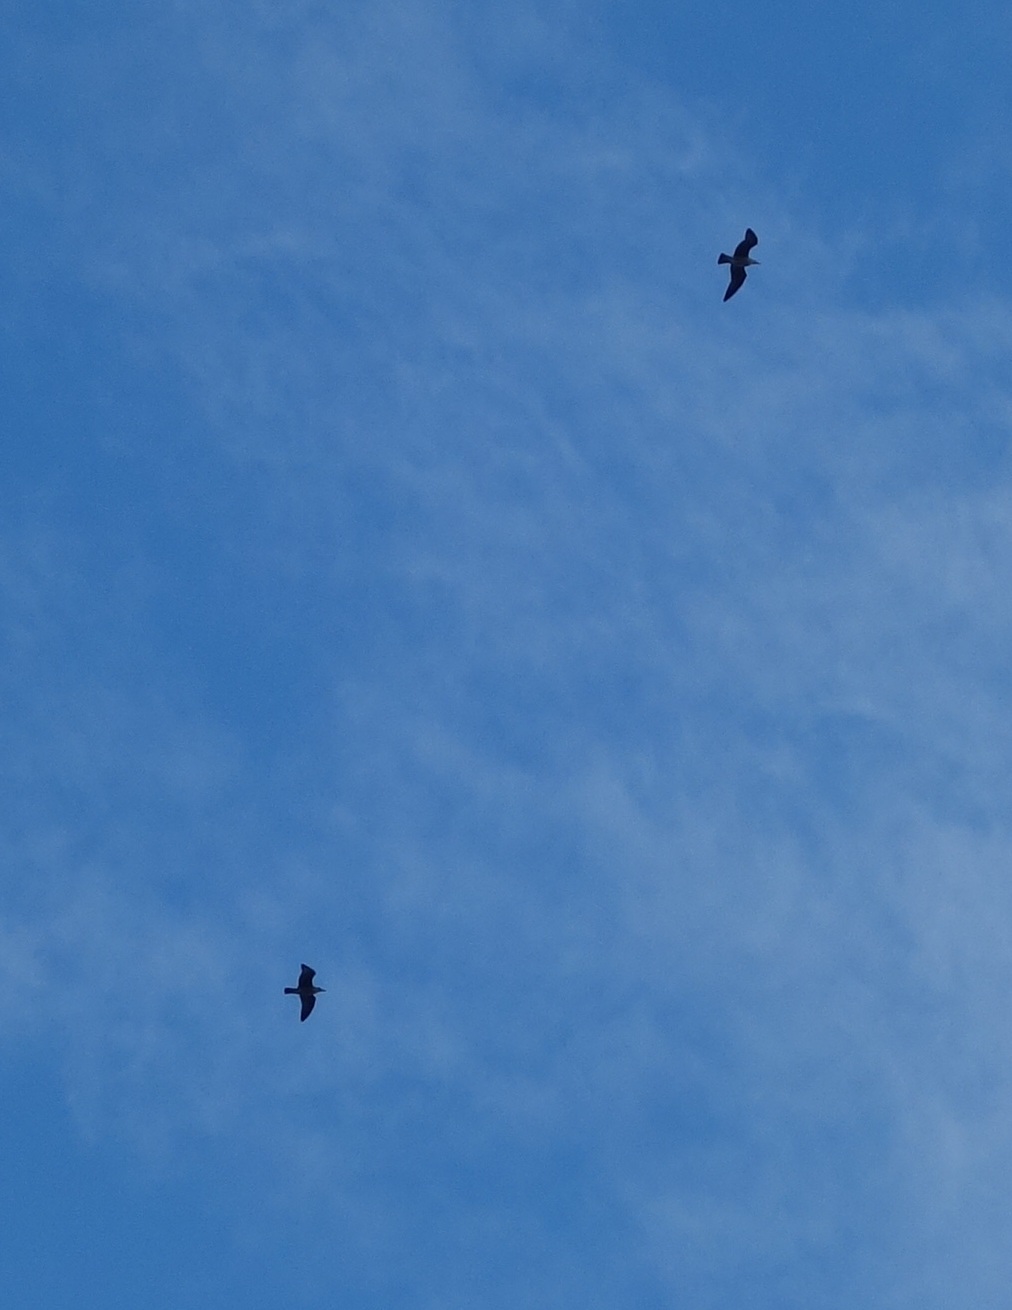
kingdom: Animalia
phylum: Chordata
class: Aves
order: Charadriiformes
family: Laridae
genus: Larus
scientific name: Larus
